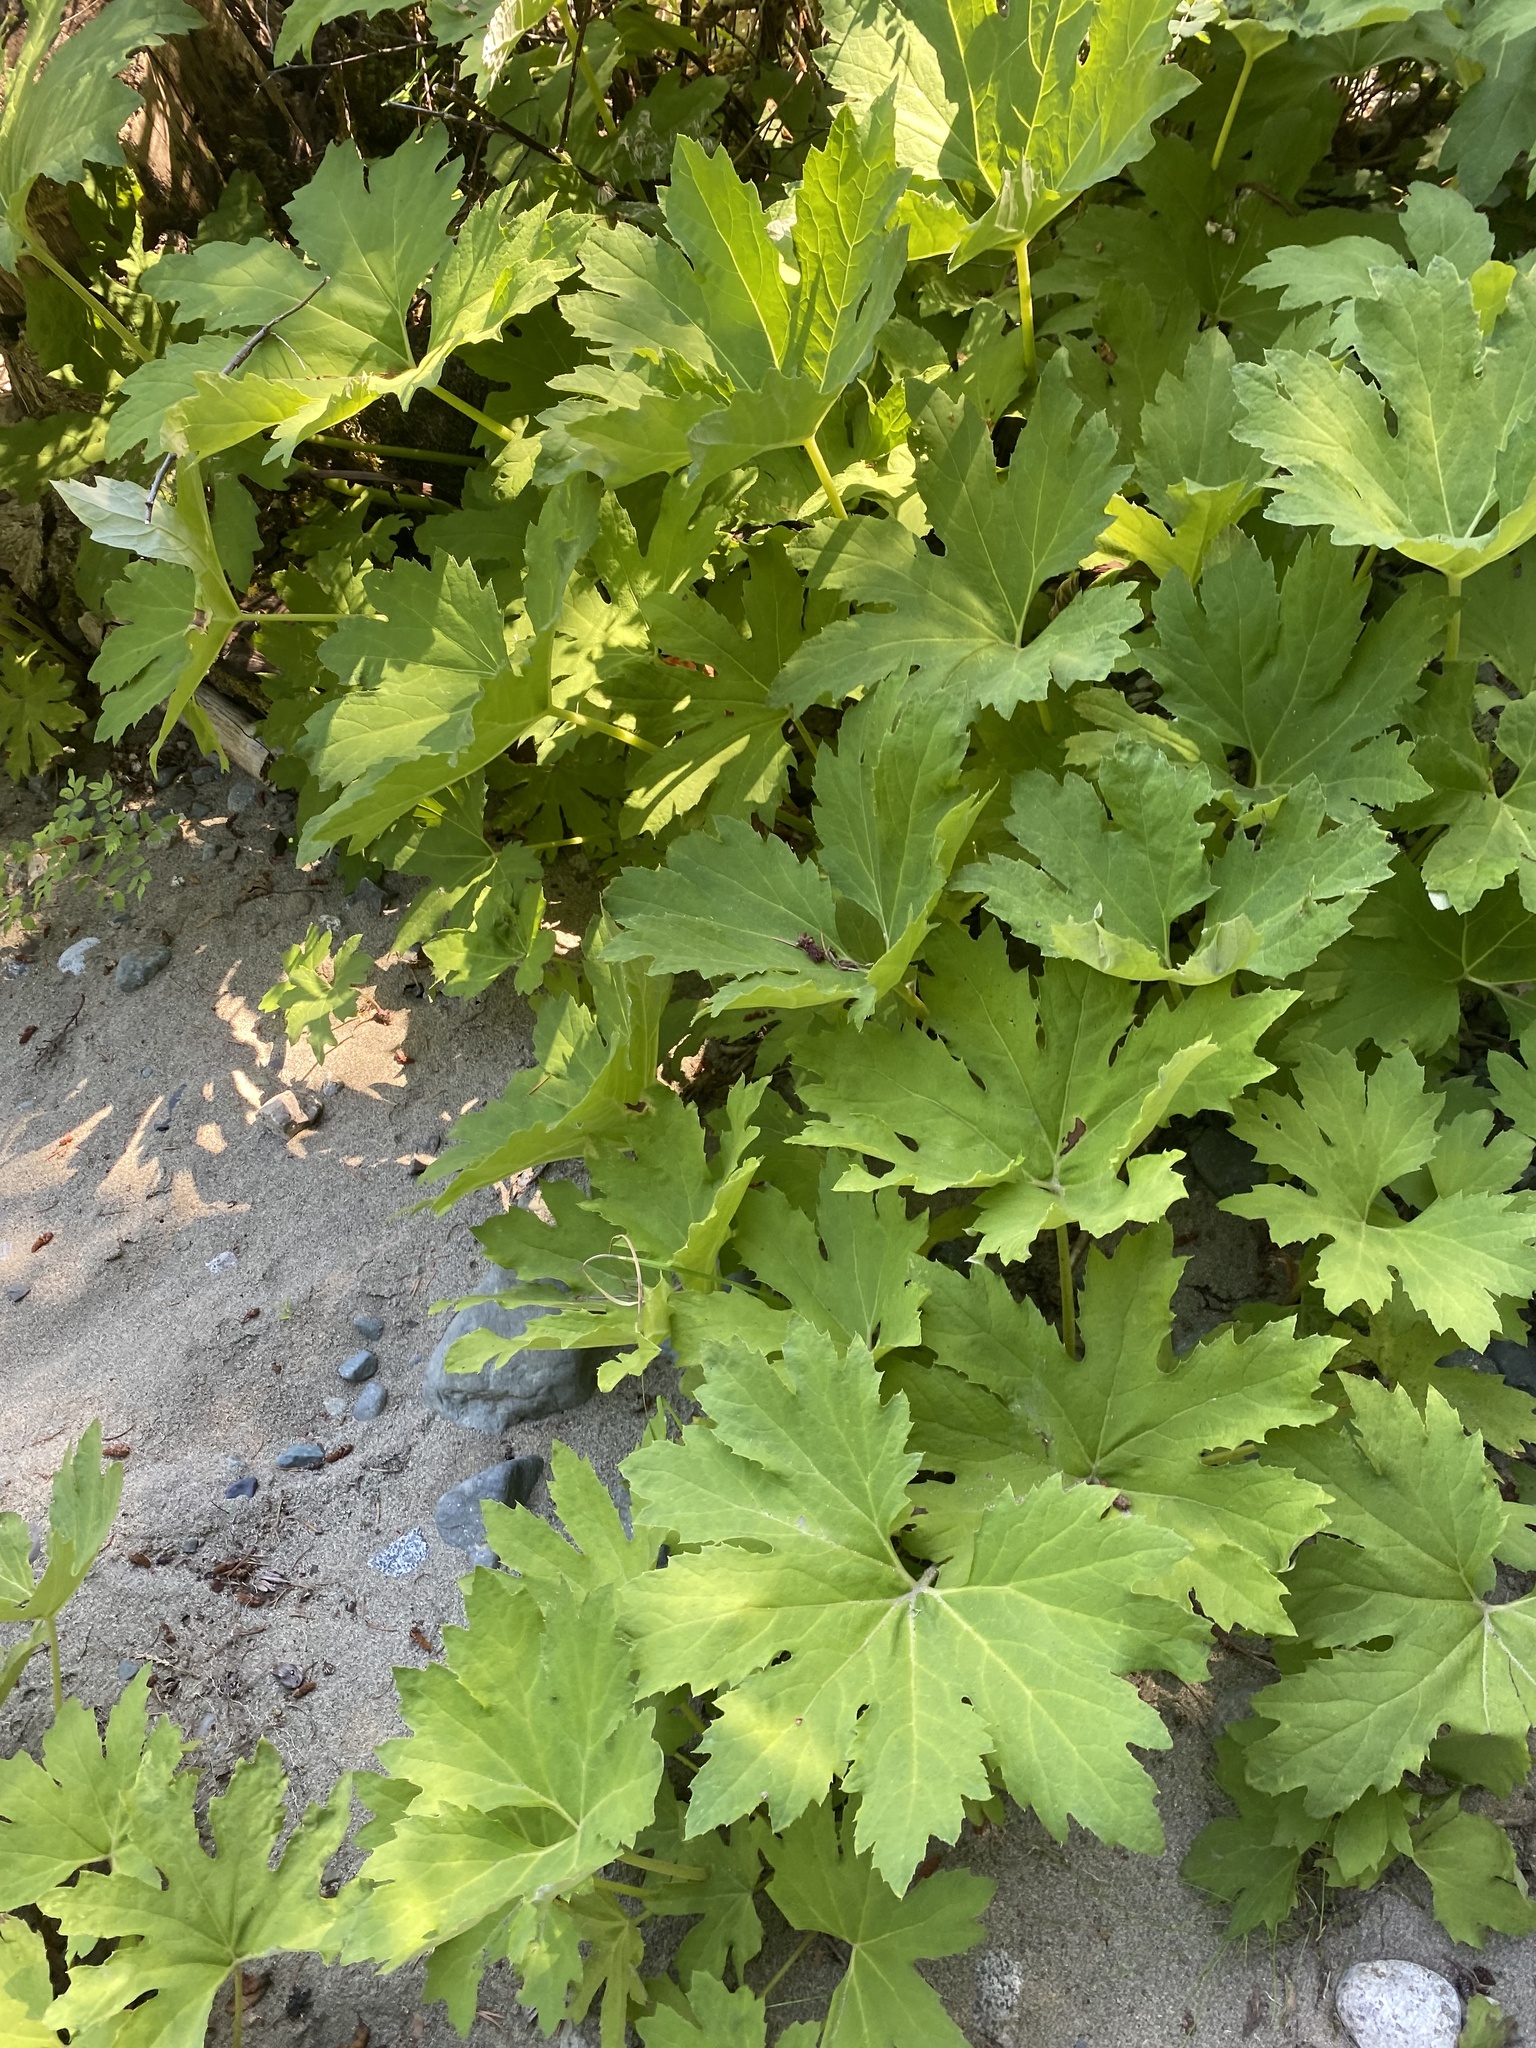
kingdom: Plantae
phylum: Tracheophyta
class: Magnoliopsida
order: Asterales
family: Asteraceae
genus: Petasites
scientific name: Petasites frigidus
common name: Arctic butterbur
